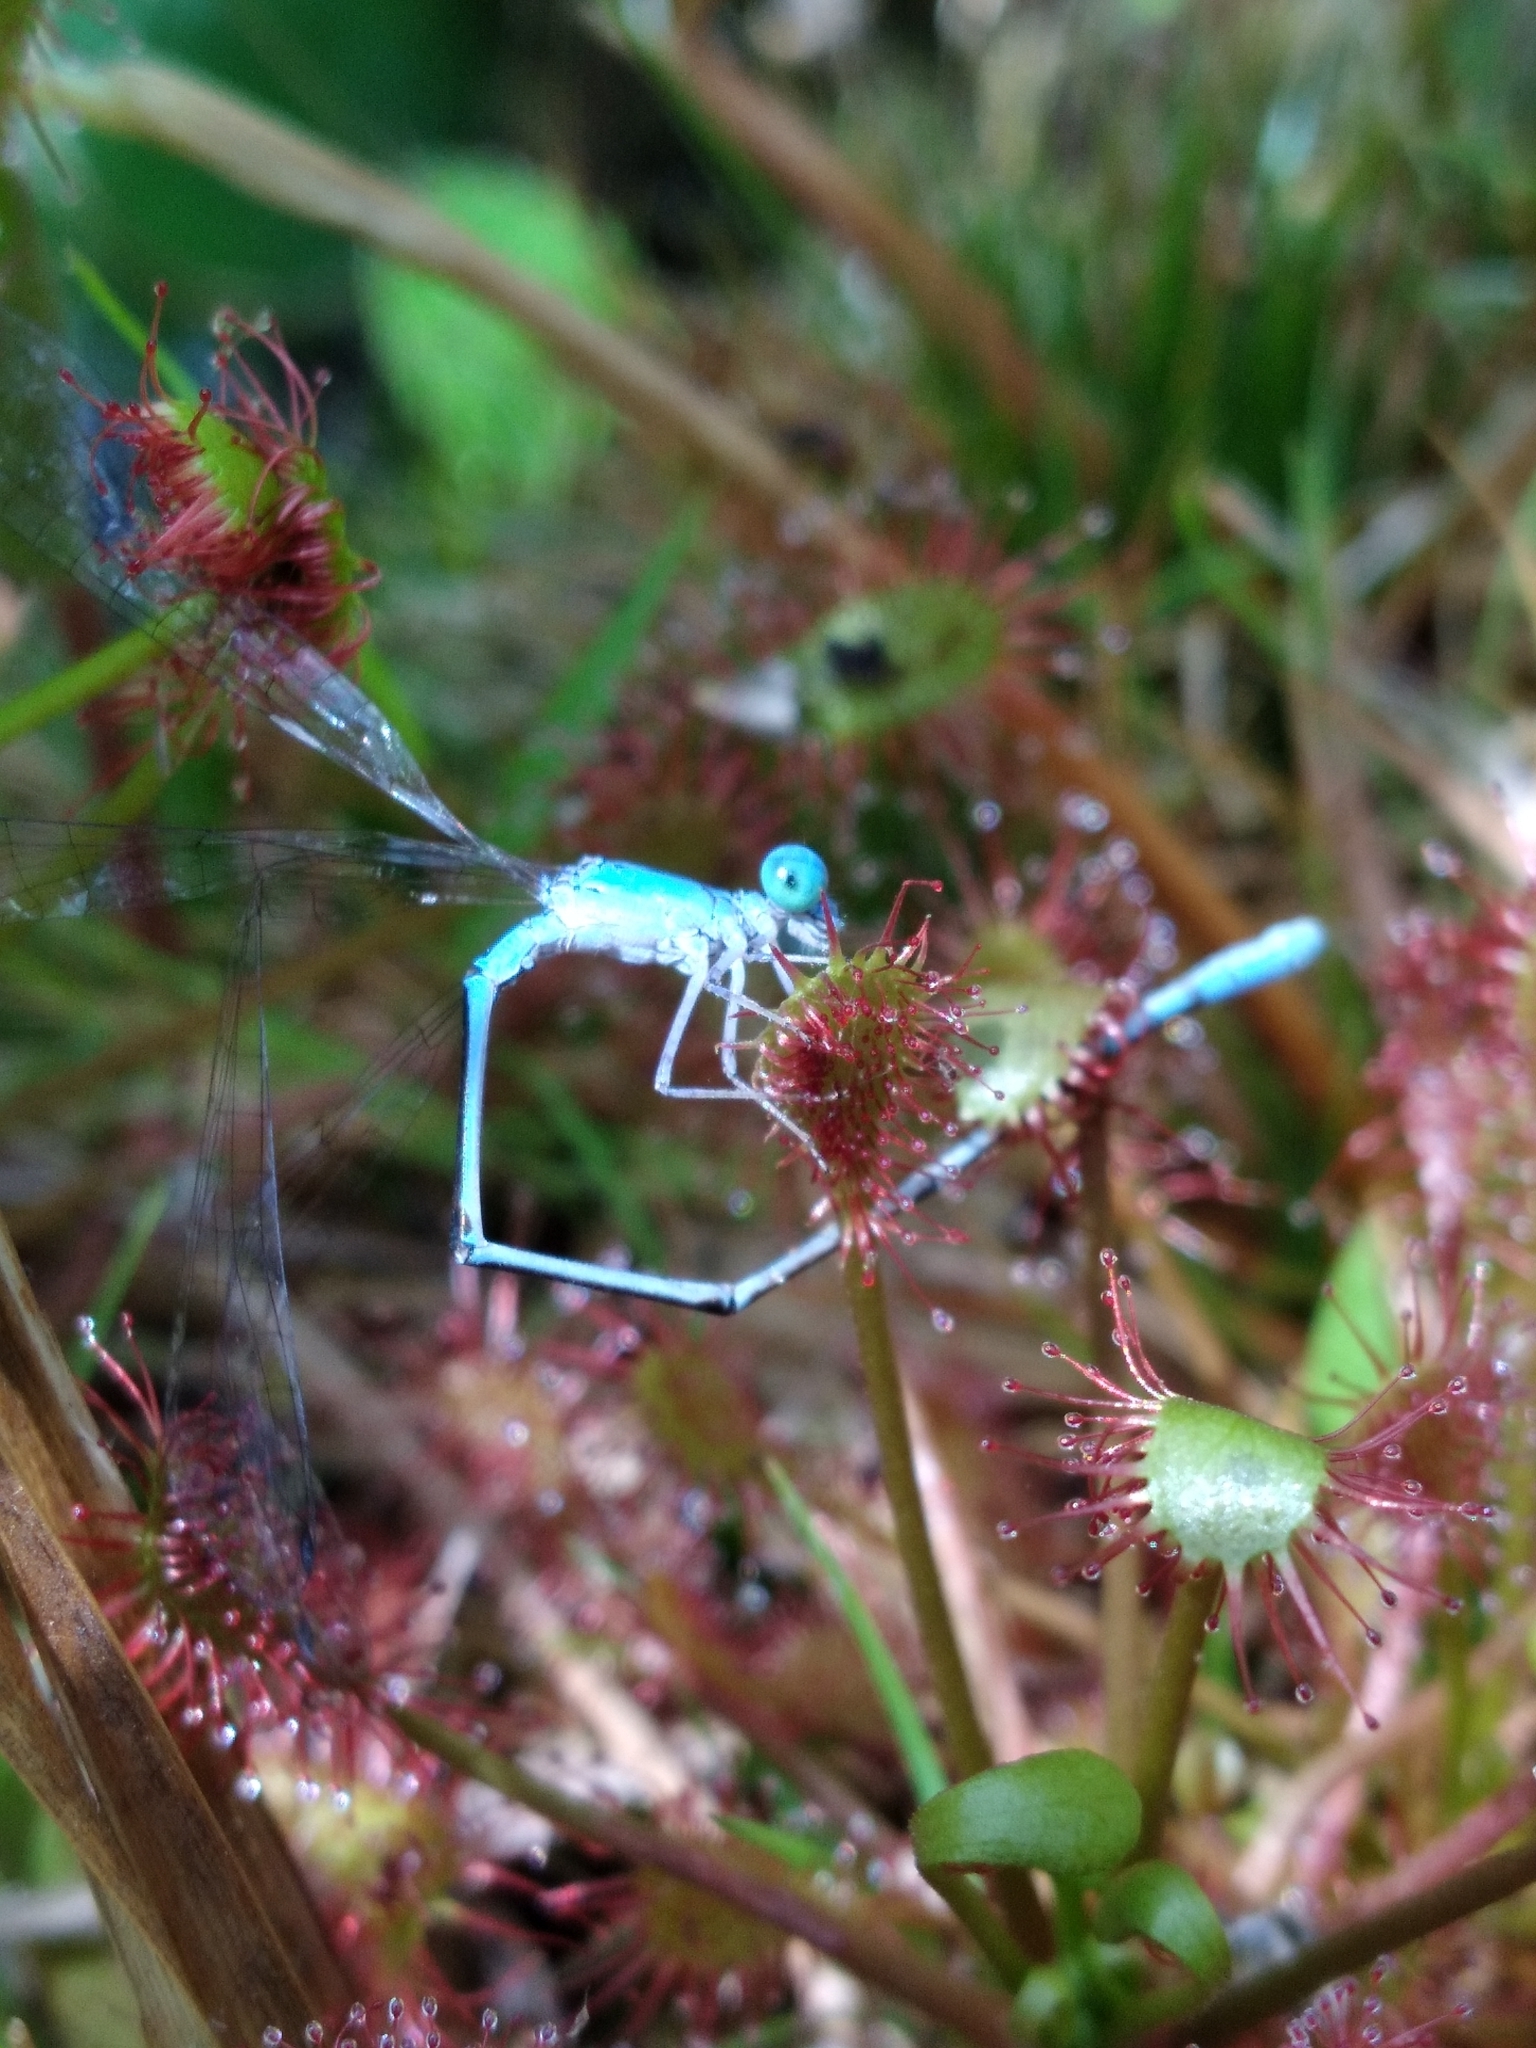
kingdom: Animalia
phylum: Arthropoda
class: Insecta
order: Odonata
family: Coenagrionidae
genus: Enallagma
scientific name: Enallagma daeckii
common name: Attenuated bluet
